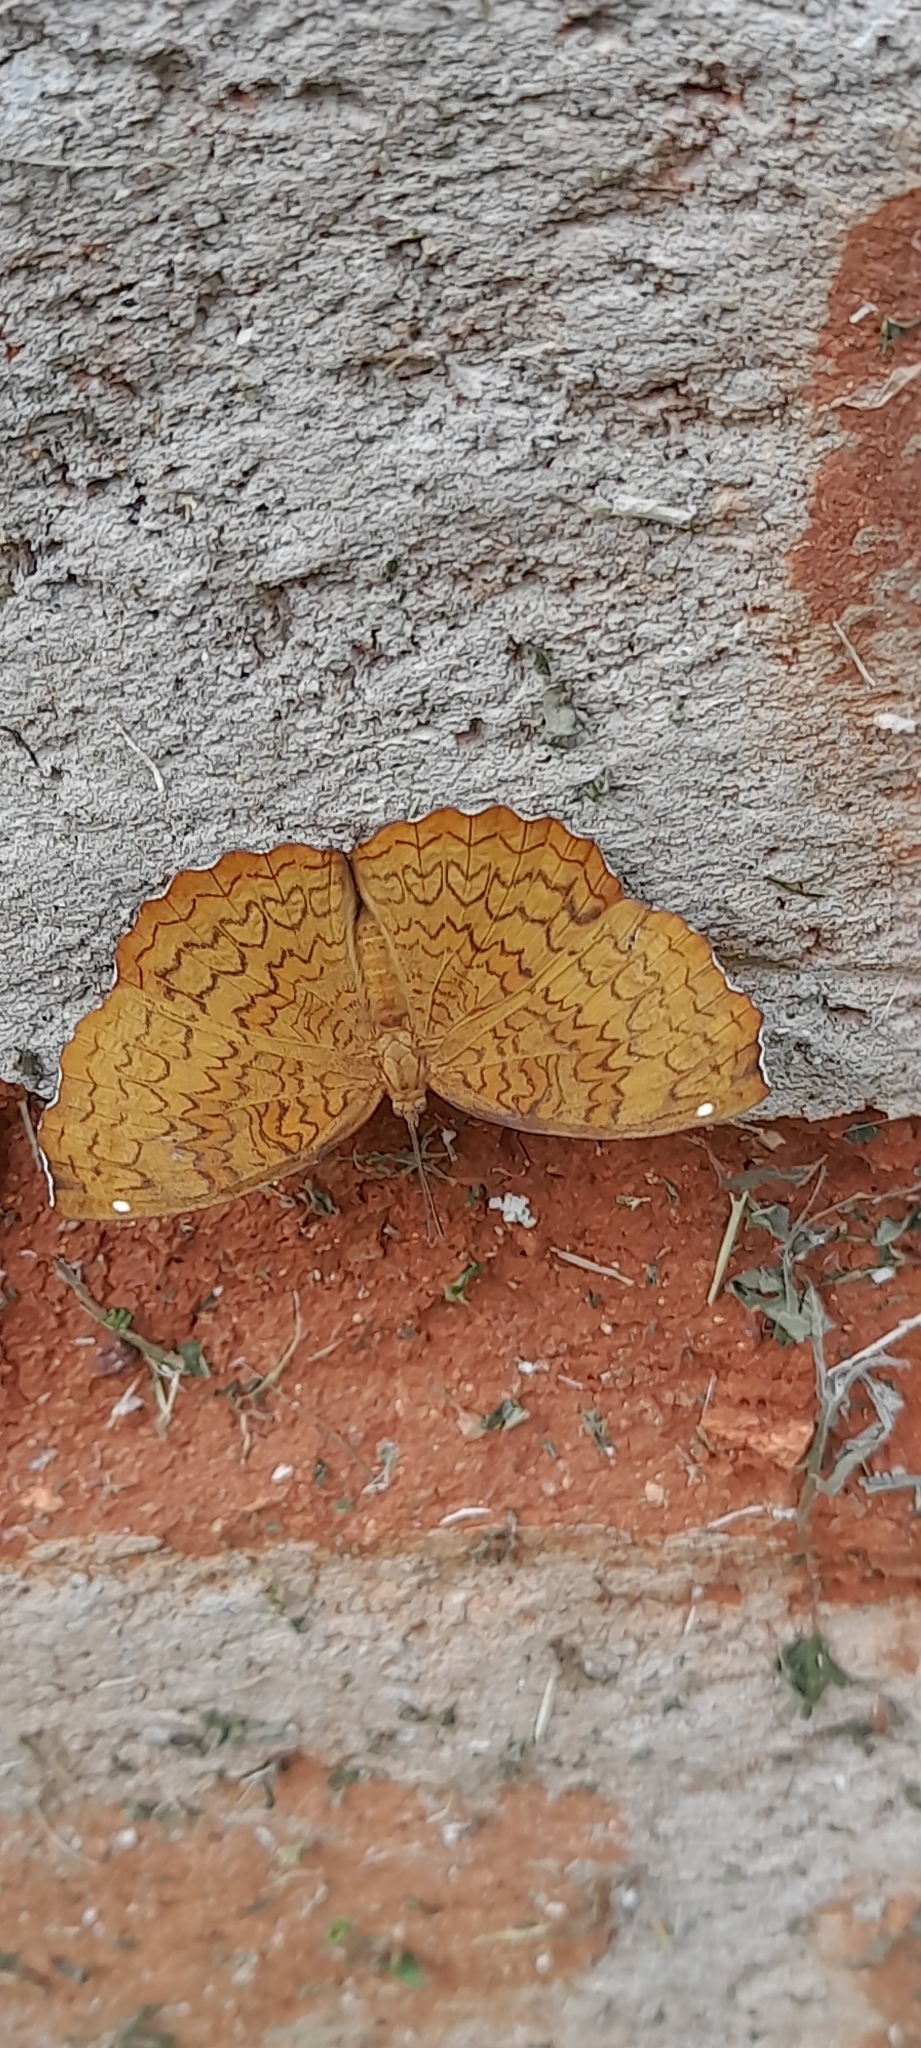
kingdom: Animalia
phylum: Arthropoda
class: Insecta
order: Lepidoptera
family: Nymphalidae
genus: Ariadne
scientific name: Ariadne merione
